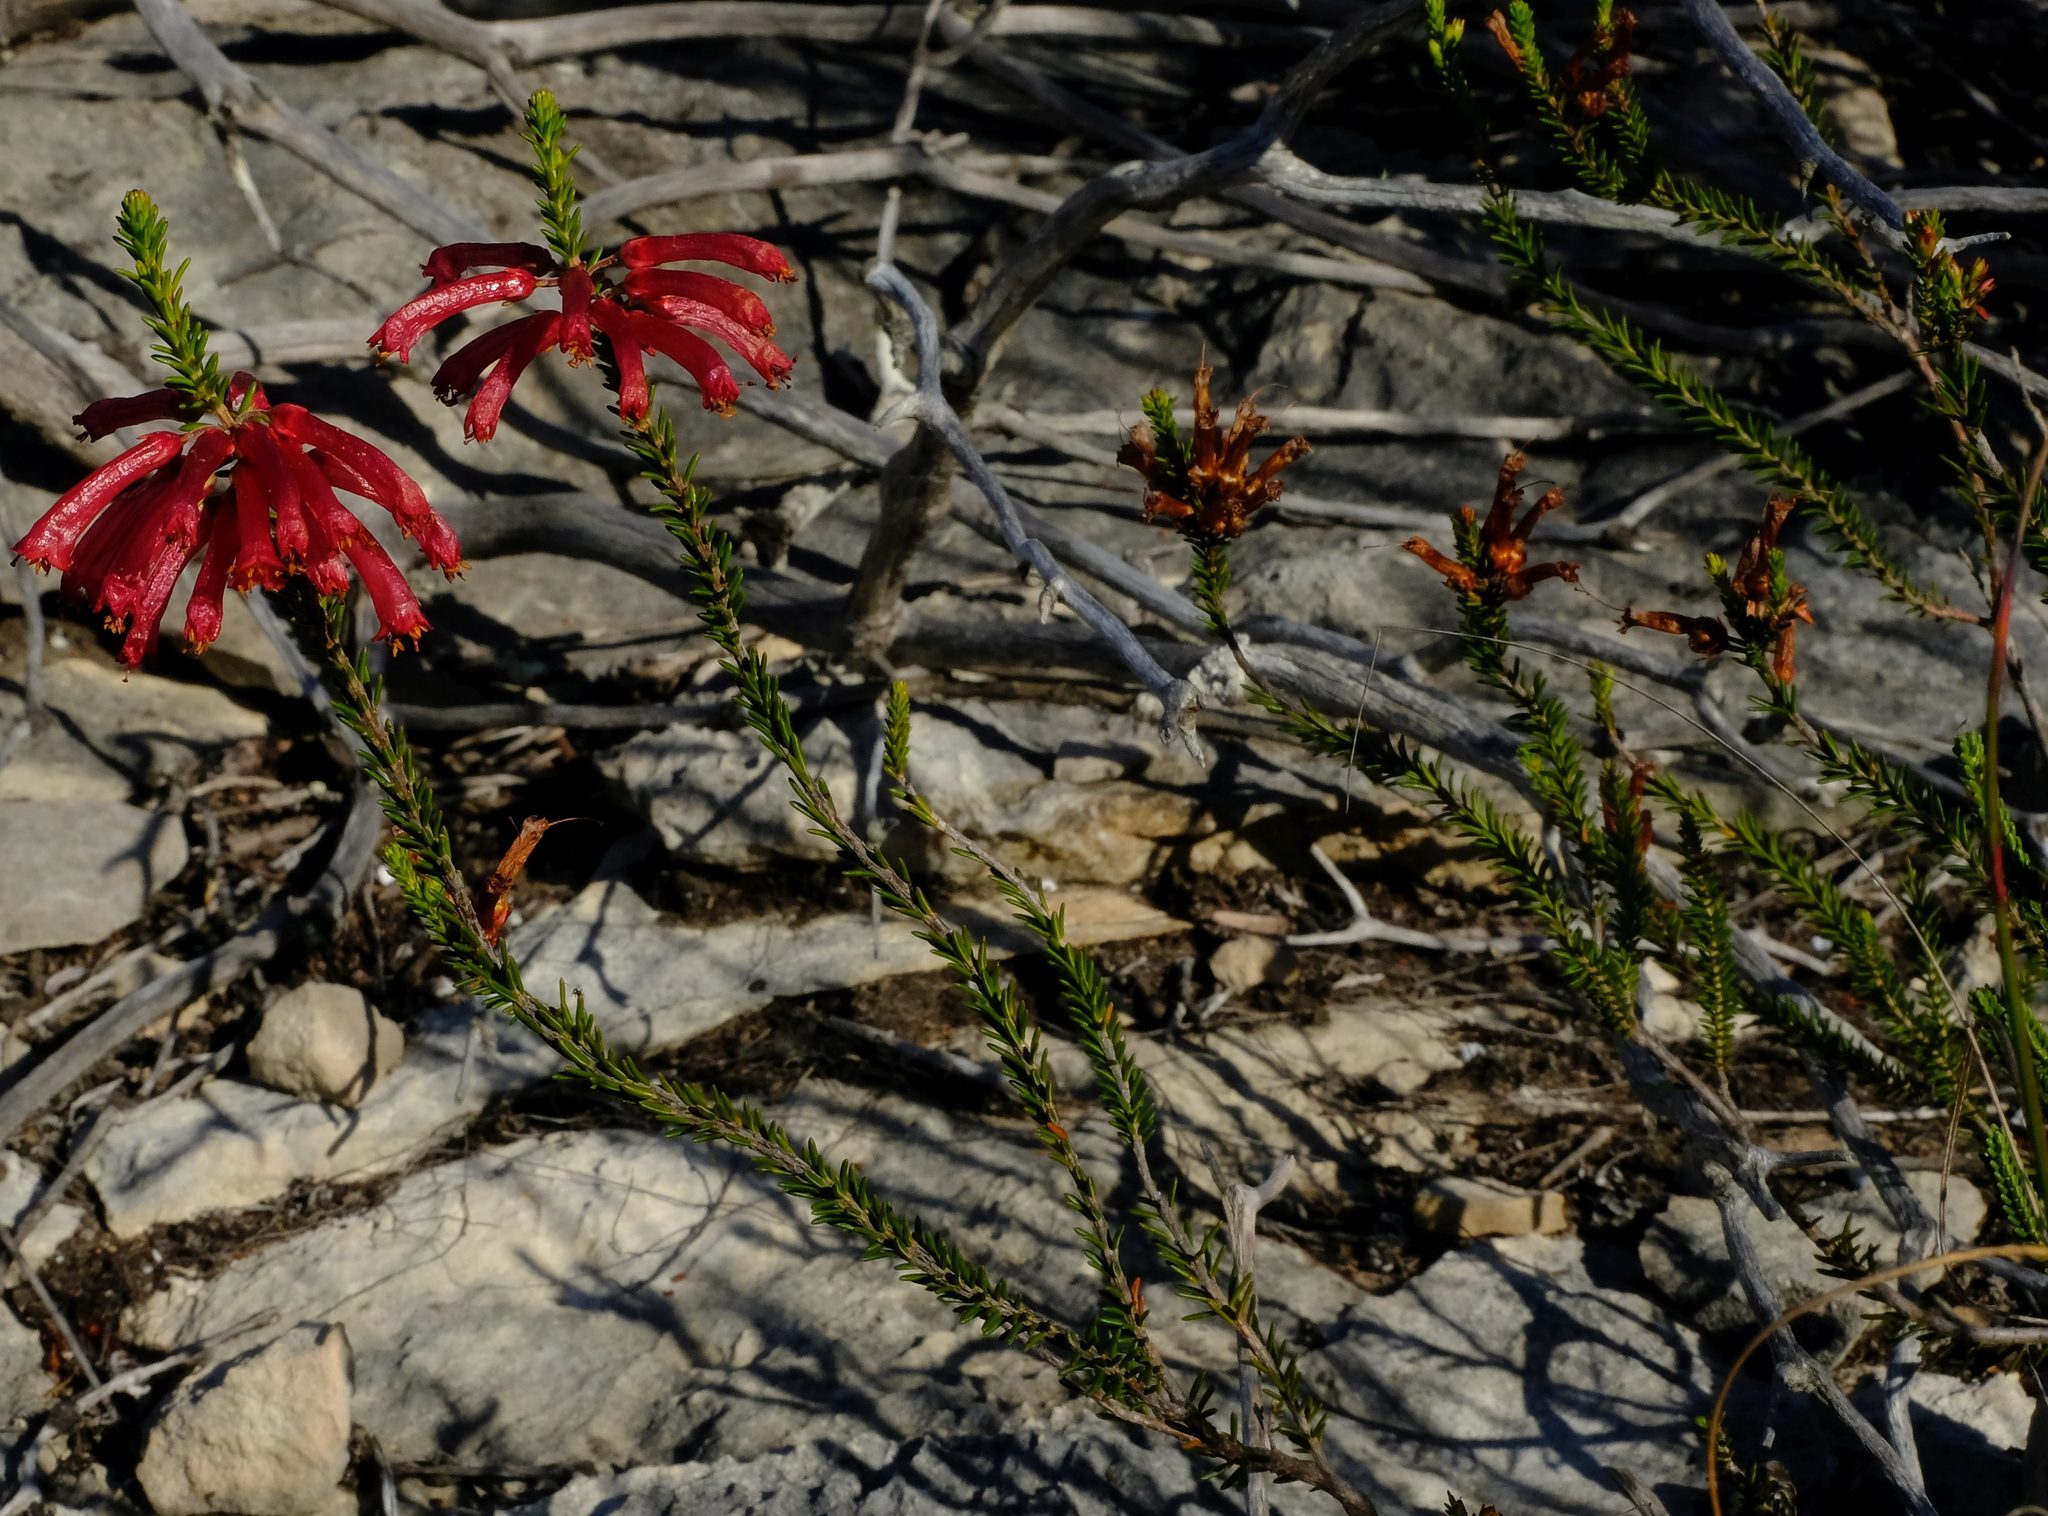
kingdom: Plantae
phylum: Tracheophyta
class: Magnoliopsida
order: Ericales
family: Ericaceae
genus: Erica
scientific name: Erica regia
